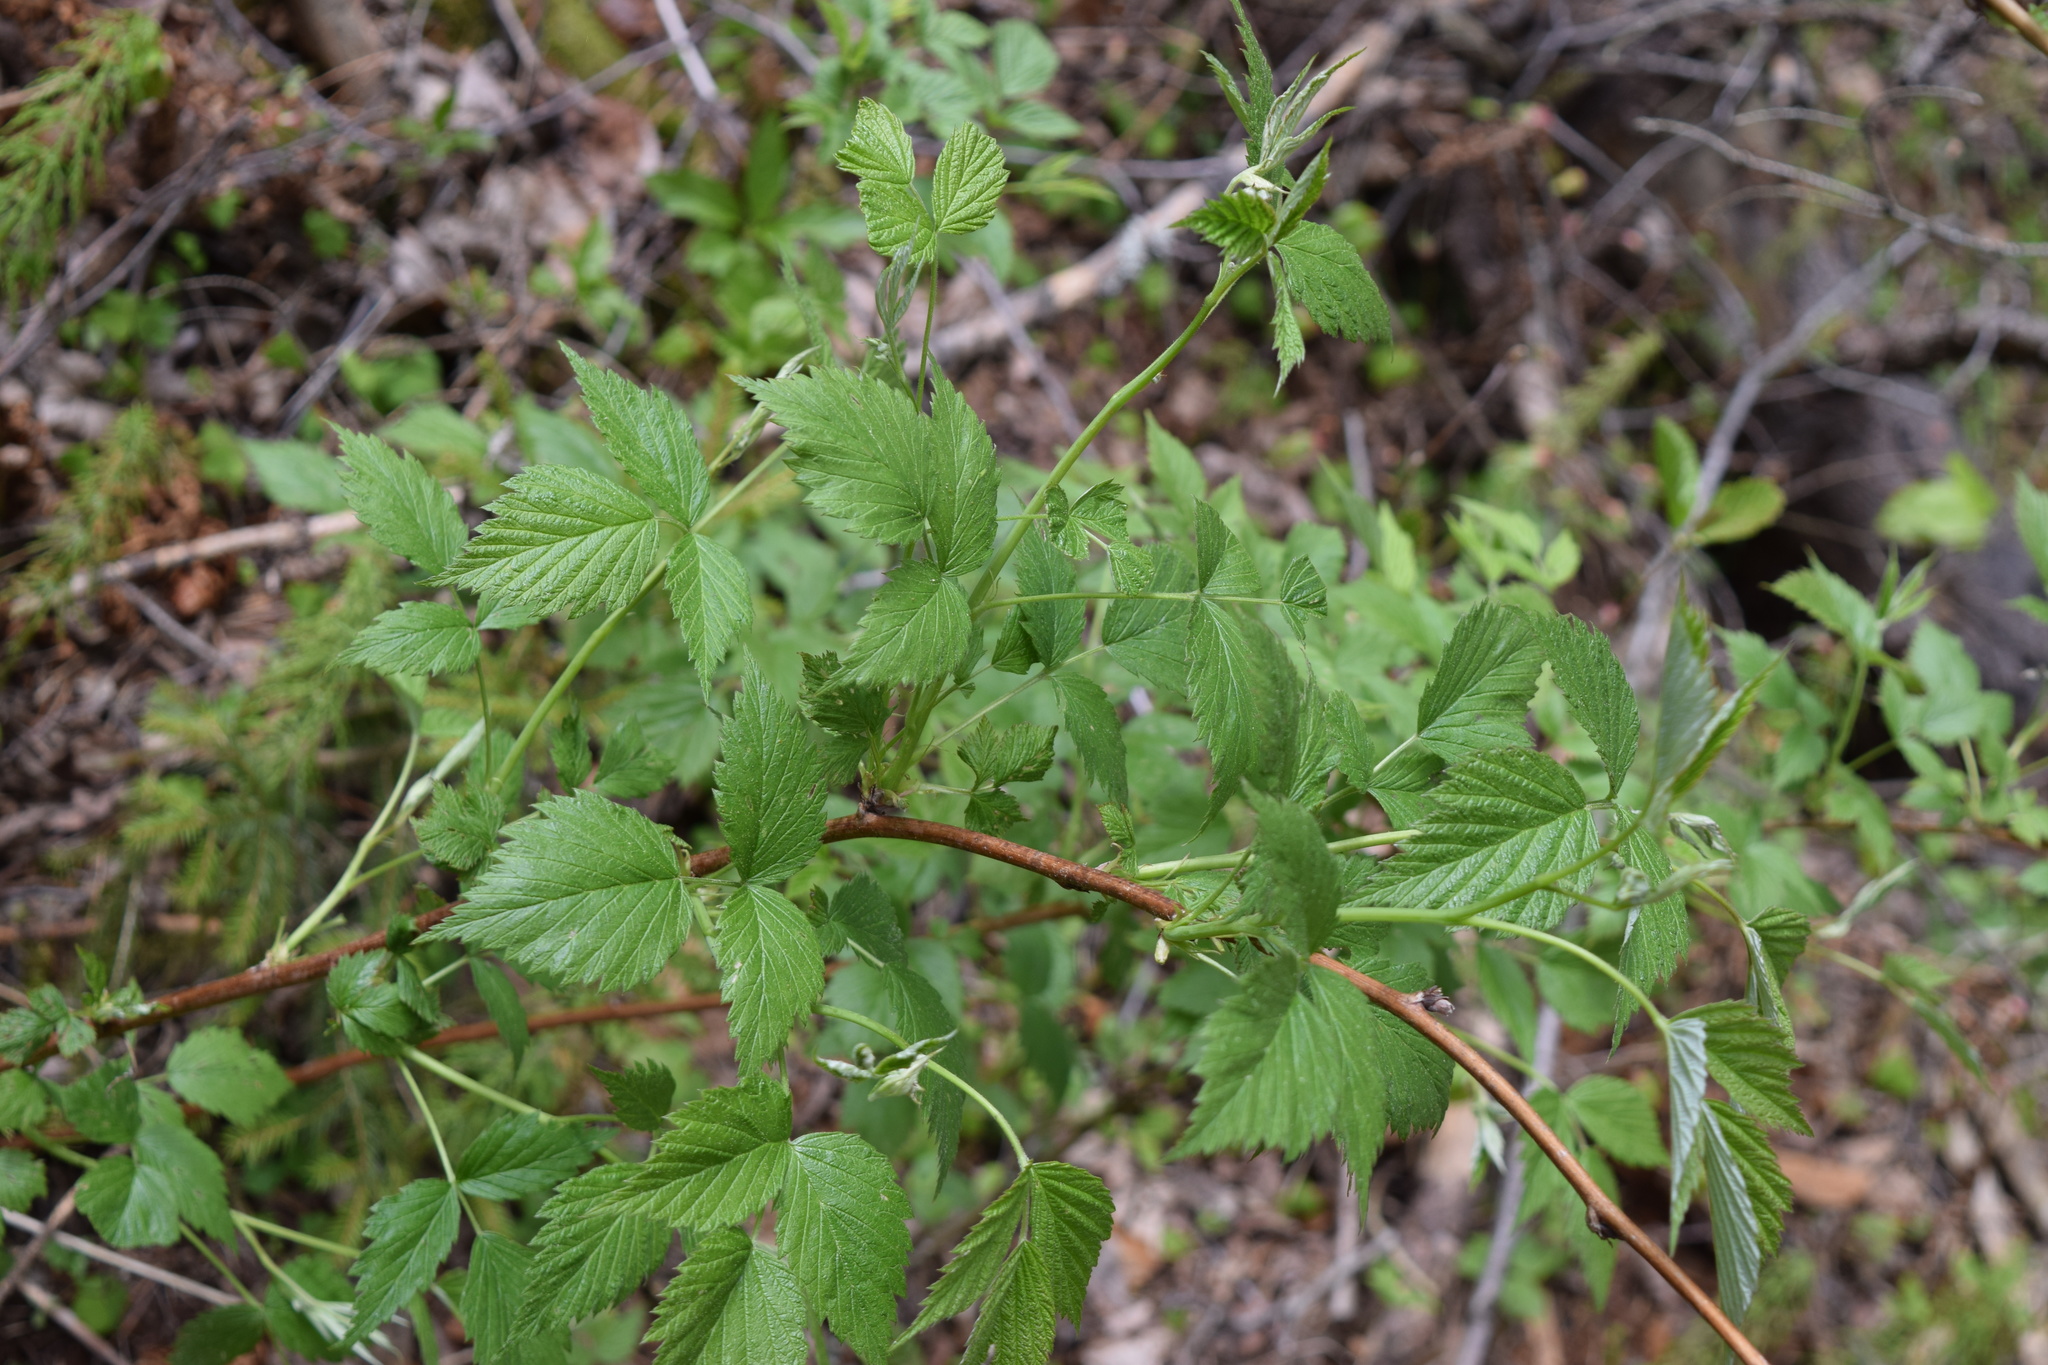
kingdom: Plantae
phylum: Tracheophyta
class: Magnoliopsida
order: Rosales
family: Rosaceae
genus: Rubus
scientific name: Rubus idaeus
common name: Raspberry
